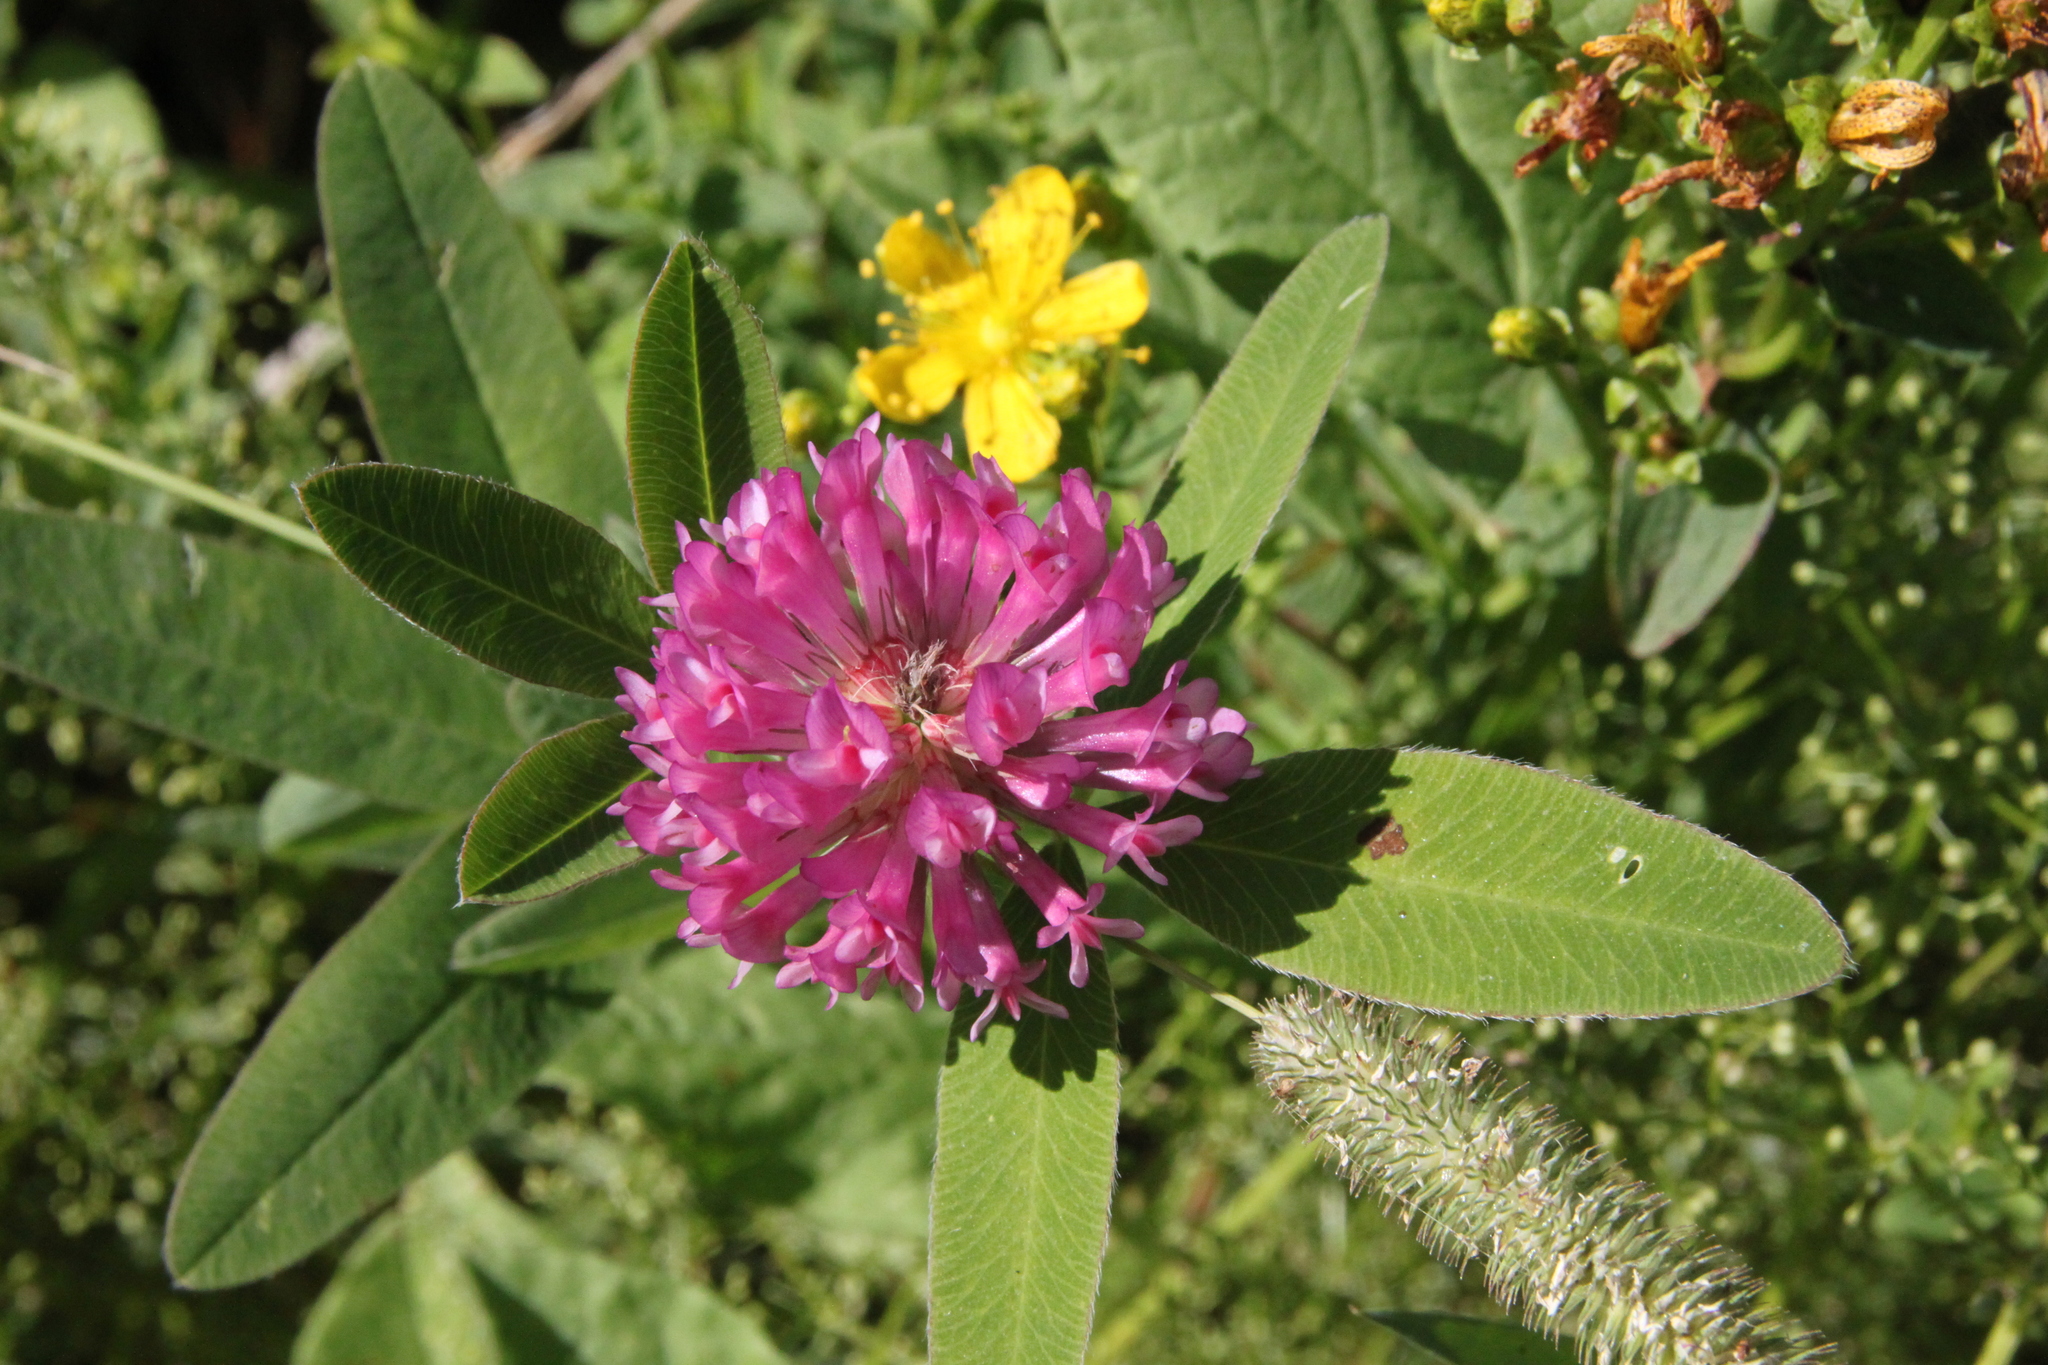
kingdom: Plantae
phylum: Tracheophyta
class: Magnoliopsida
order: Fabales
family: Fabaceae
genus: Trifolium
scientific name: Trifolium medium
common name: Zigzag clover
